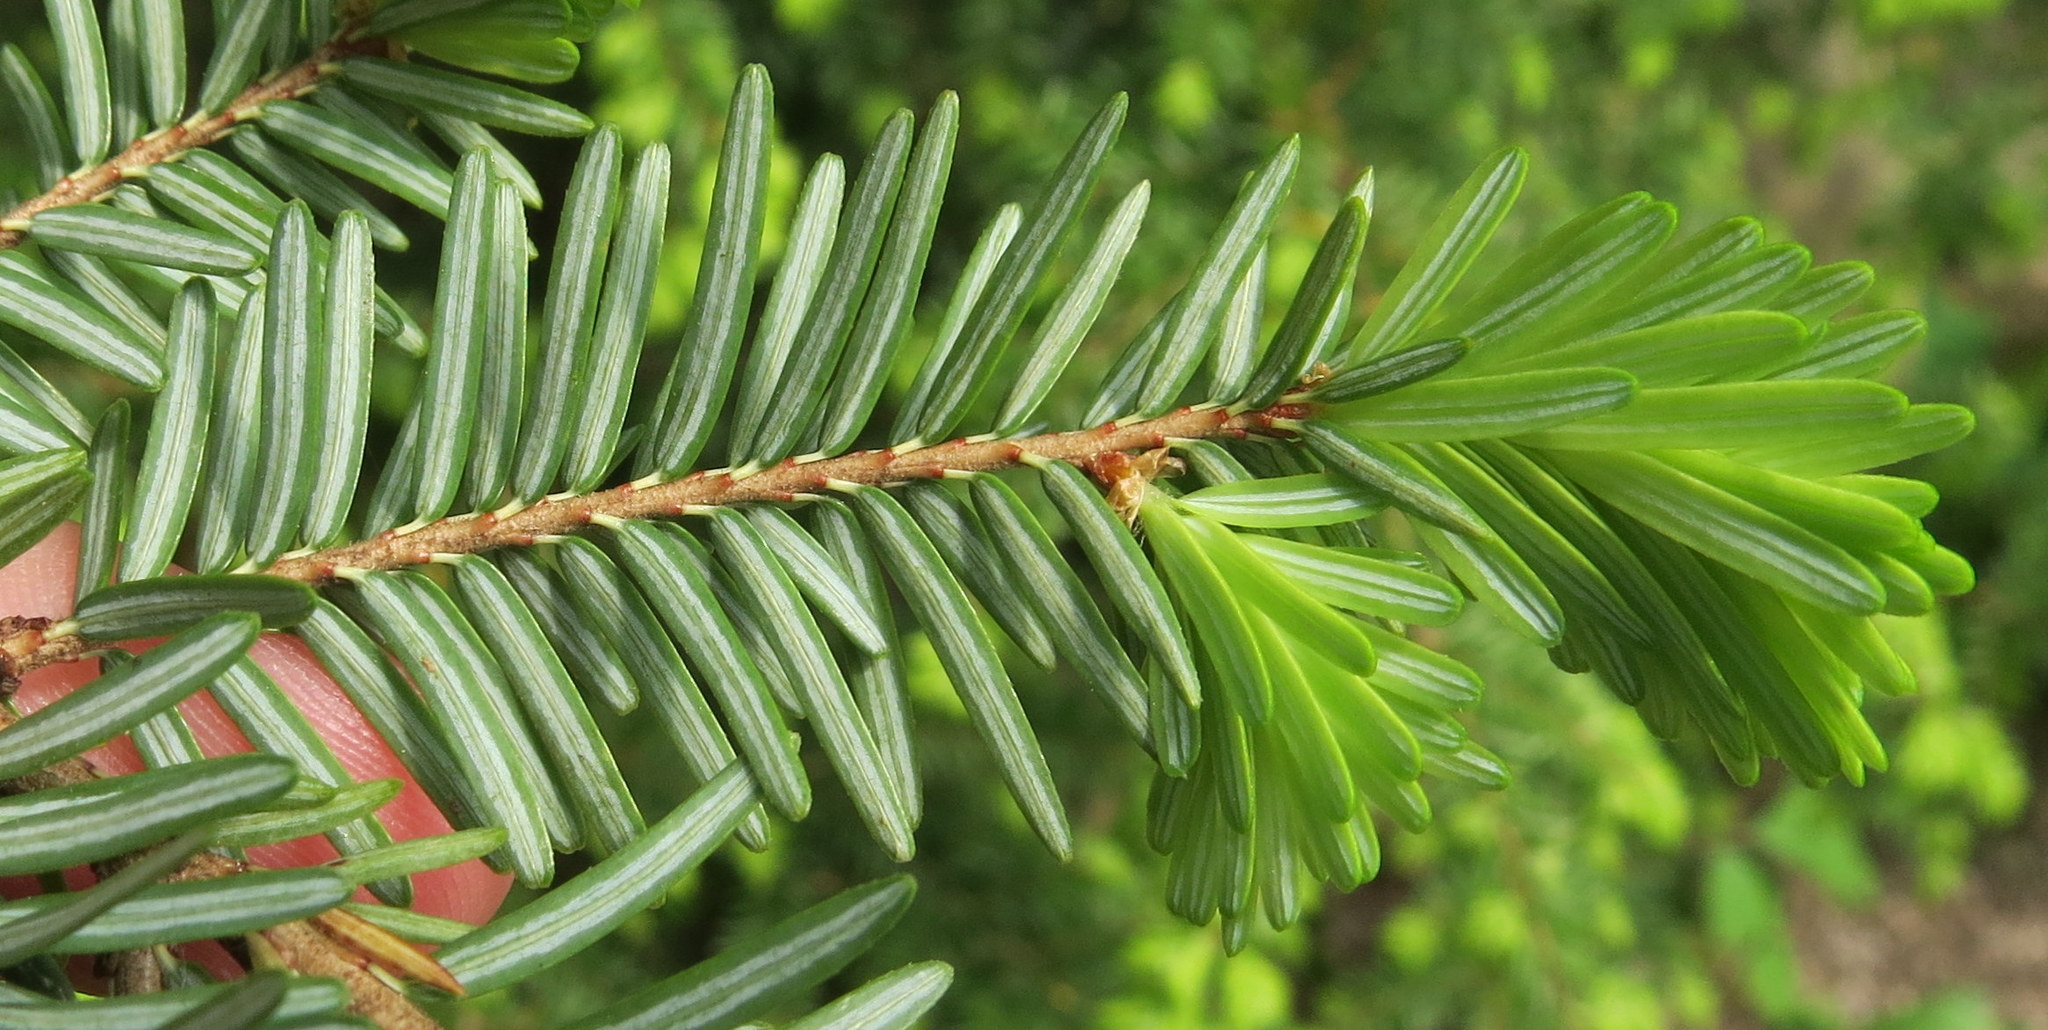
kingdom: Plantae
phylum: Tracheophyta
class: Pinopsida
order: Pinales
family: Pinaceae
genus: Tsuga
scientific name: Tsuga canadensis
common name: Eastern hemlock
